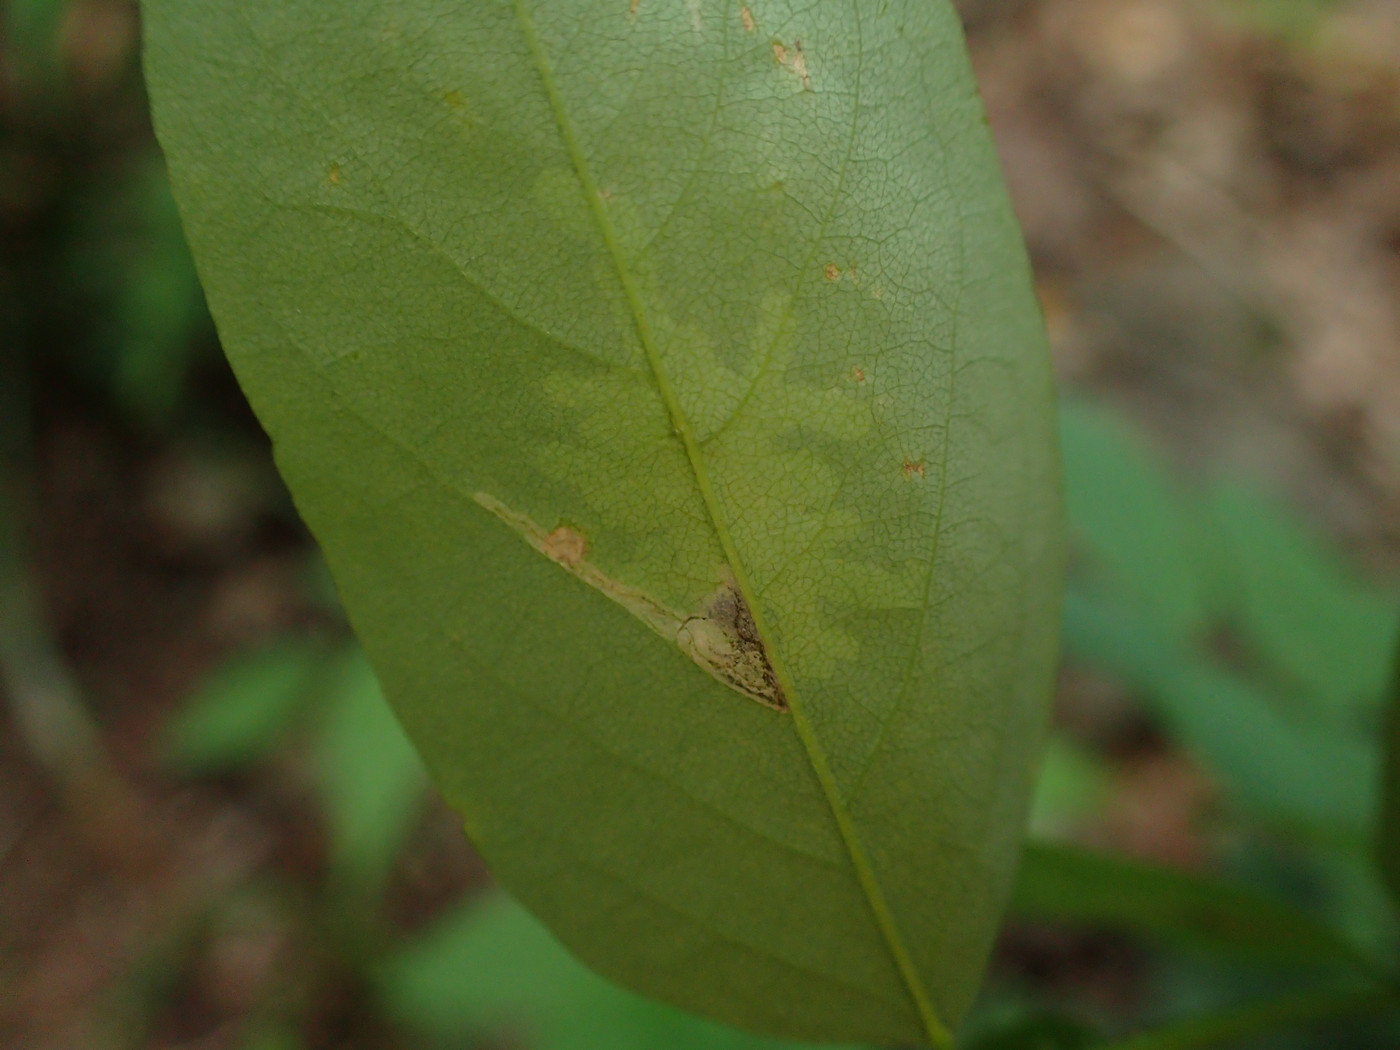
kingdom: Animalia
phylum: Arthropoda
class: Insecta
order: Lepidoptera
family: Gracillariidae
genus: Parectopa
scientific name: Parectopa robiniella
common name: Locust digitate leafminer
